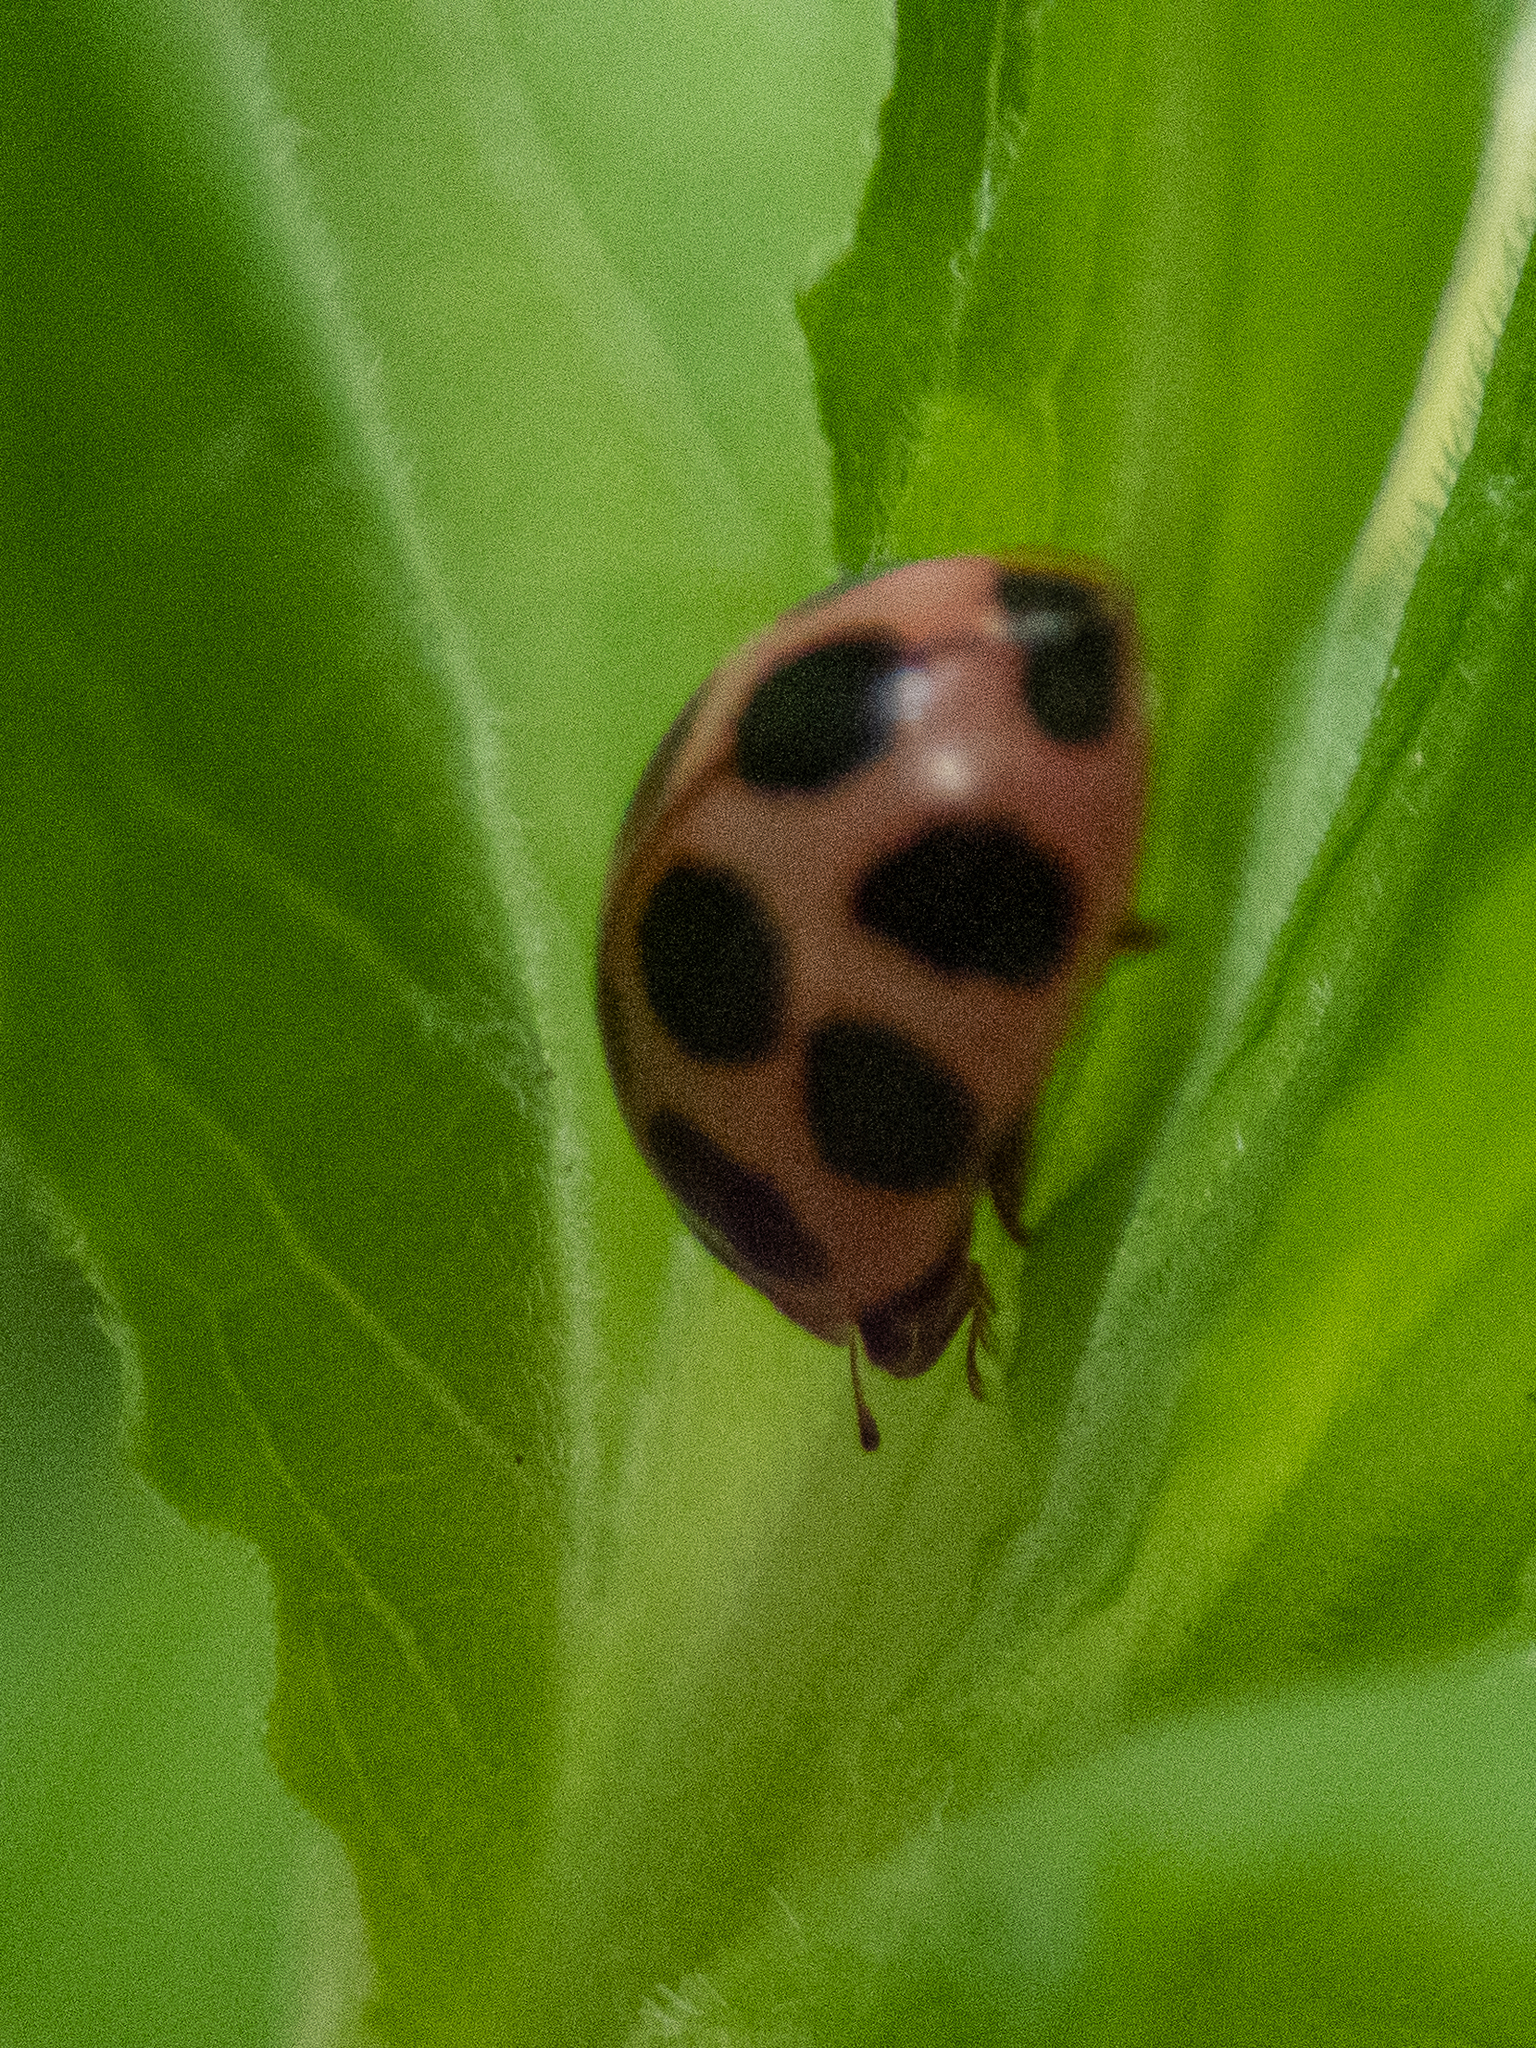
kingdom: Animalia
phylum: Arthropoda
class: Insecta
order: Coleoptera
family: Coccinellidae
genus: Calvia
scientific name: Calvia quatuordecimguttata
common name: Cream-spot ladybird
